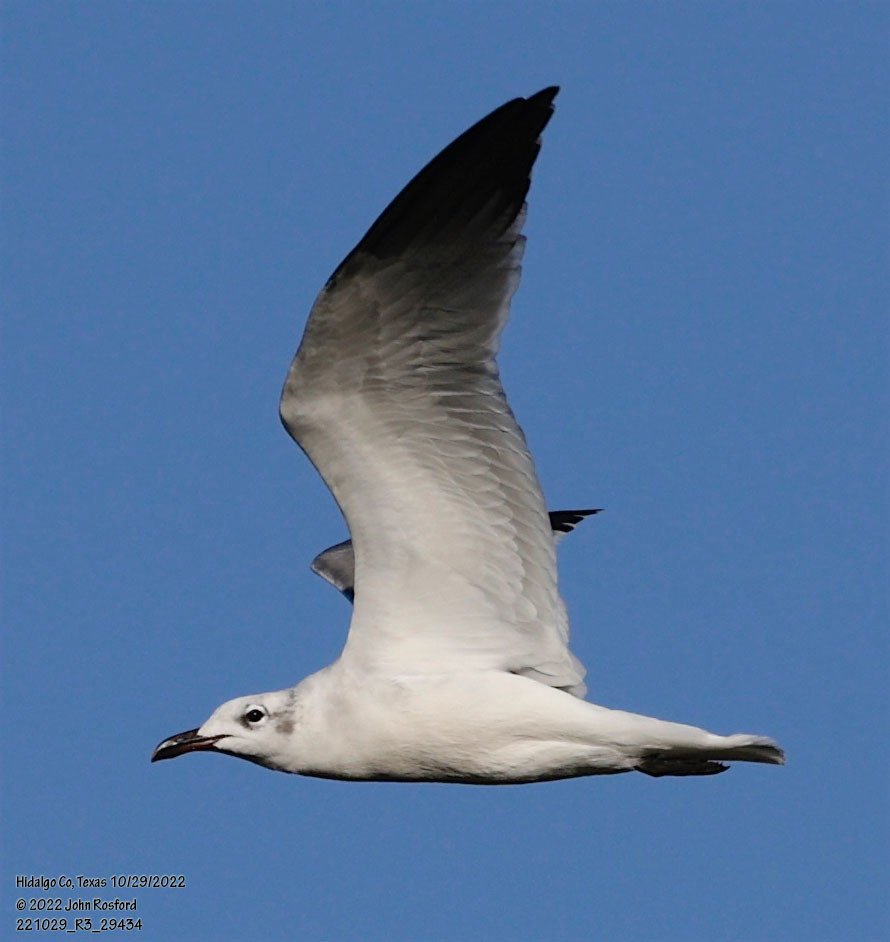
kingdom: Animalia
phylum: Chordata
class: Aves
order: Charadriiformes
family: Laridae
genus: Leucophaeus
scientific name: Leucophaeus atricilla
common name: Laughing gull
